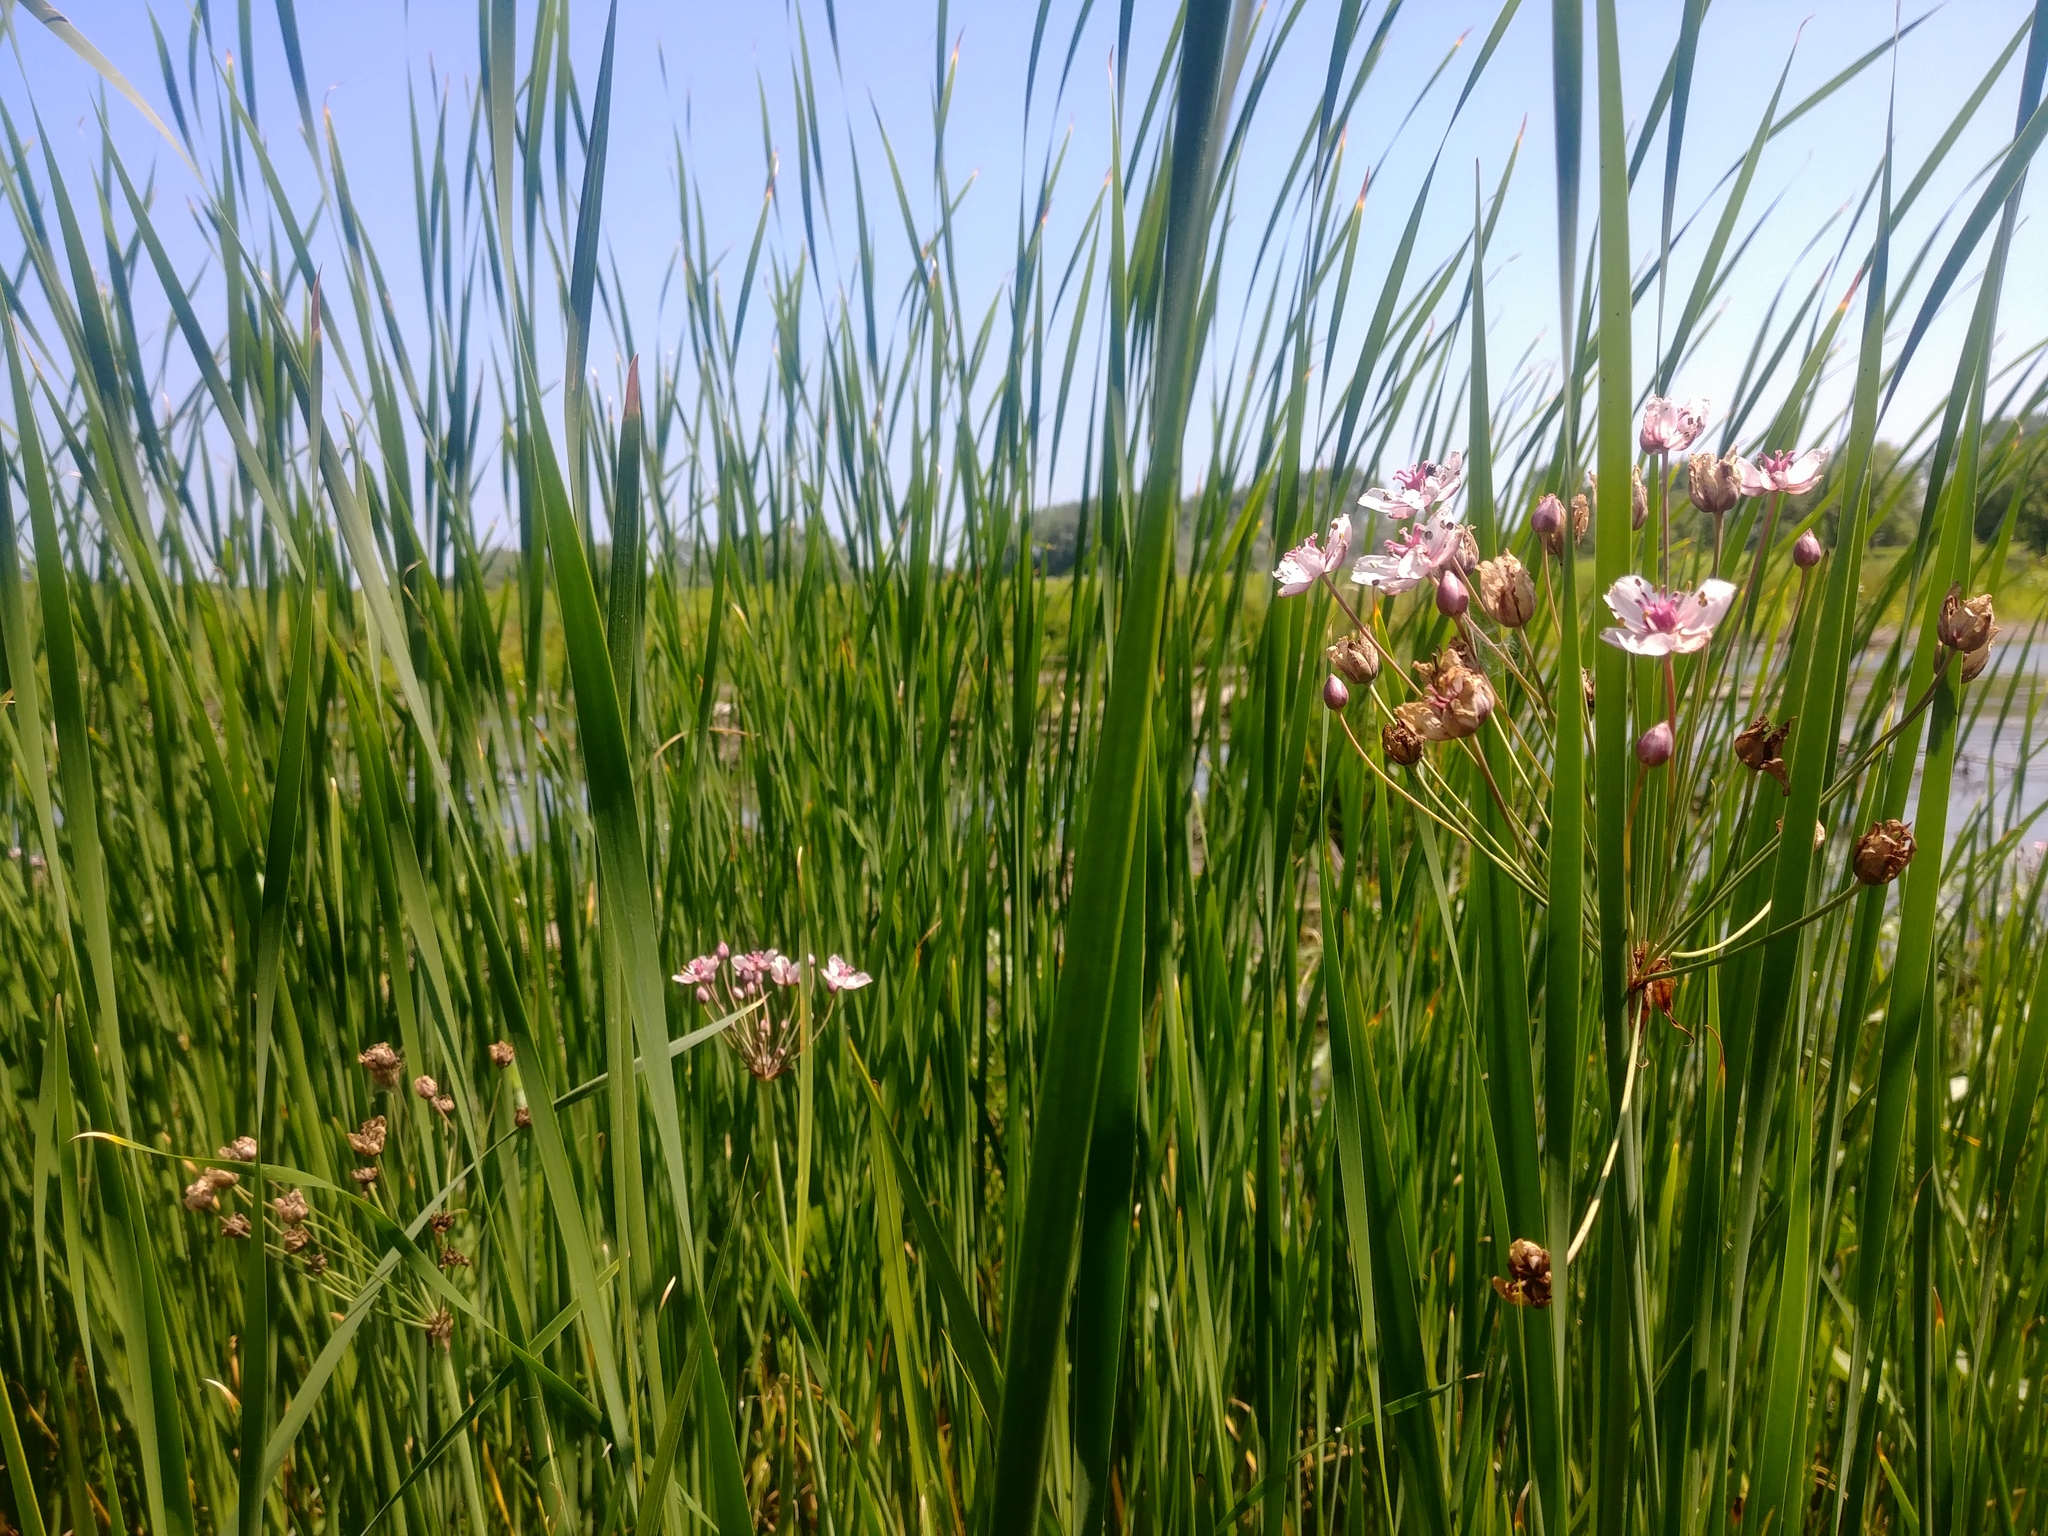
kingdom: Plantae
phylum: Tracheophyta
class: Liliopsida
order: Alismatales
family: Butomaceae
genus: Butomus
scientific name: Butomus umbellatus
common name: Flowering-rush
